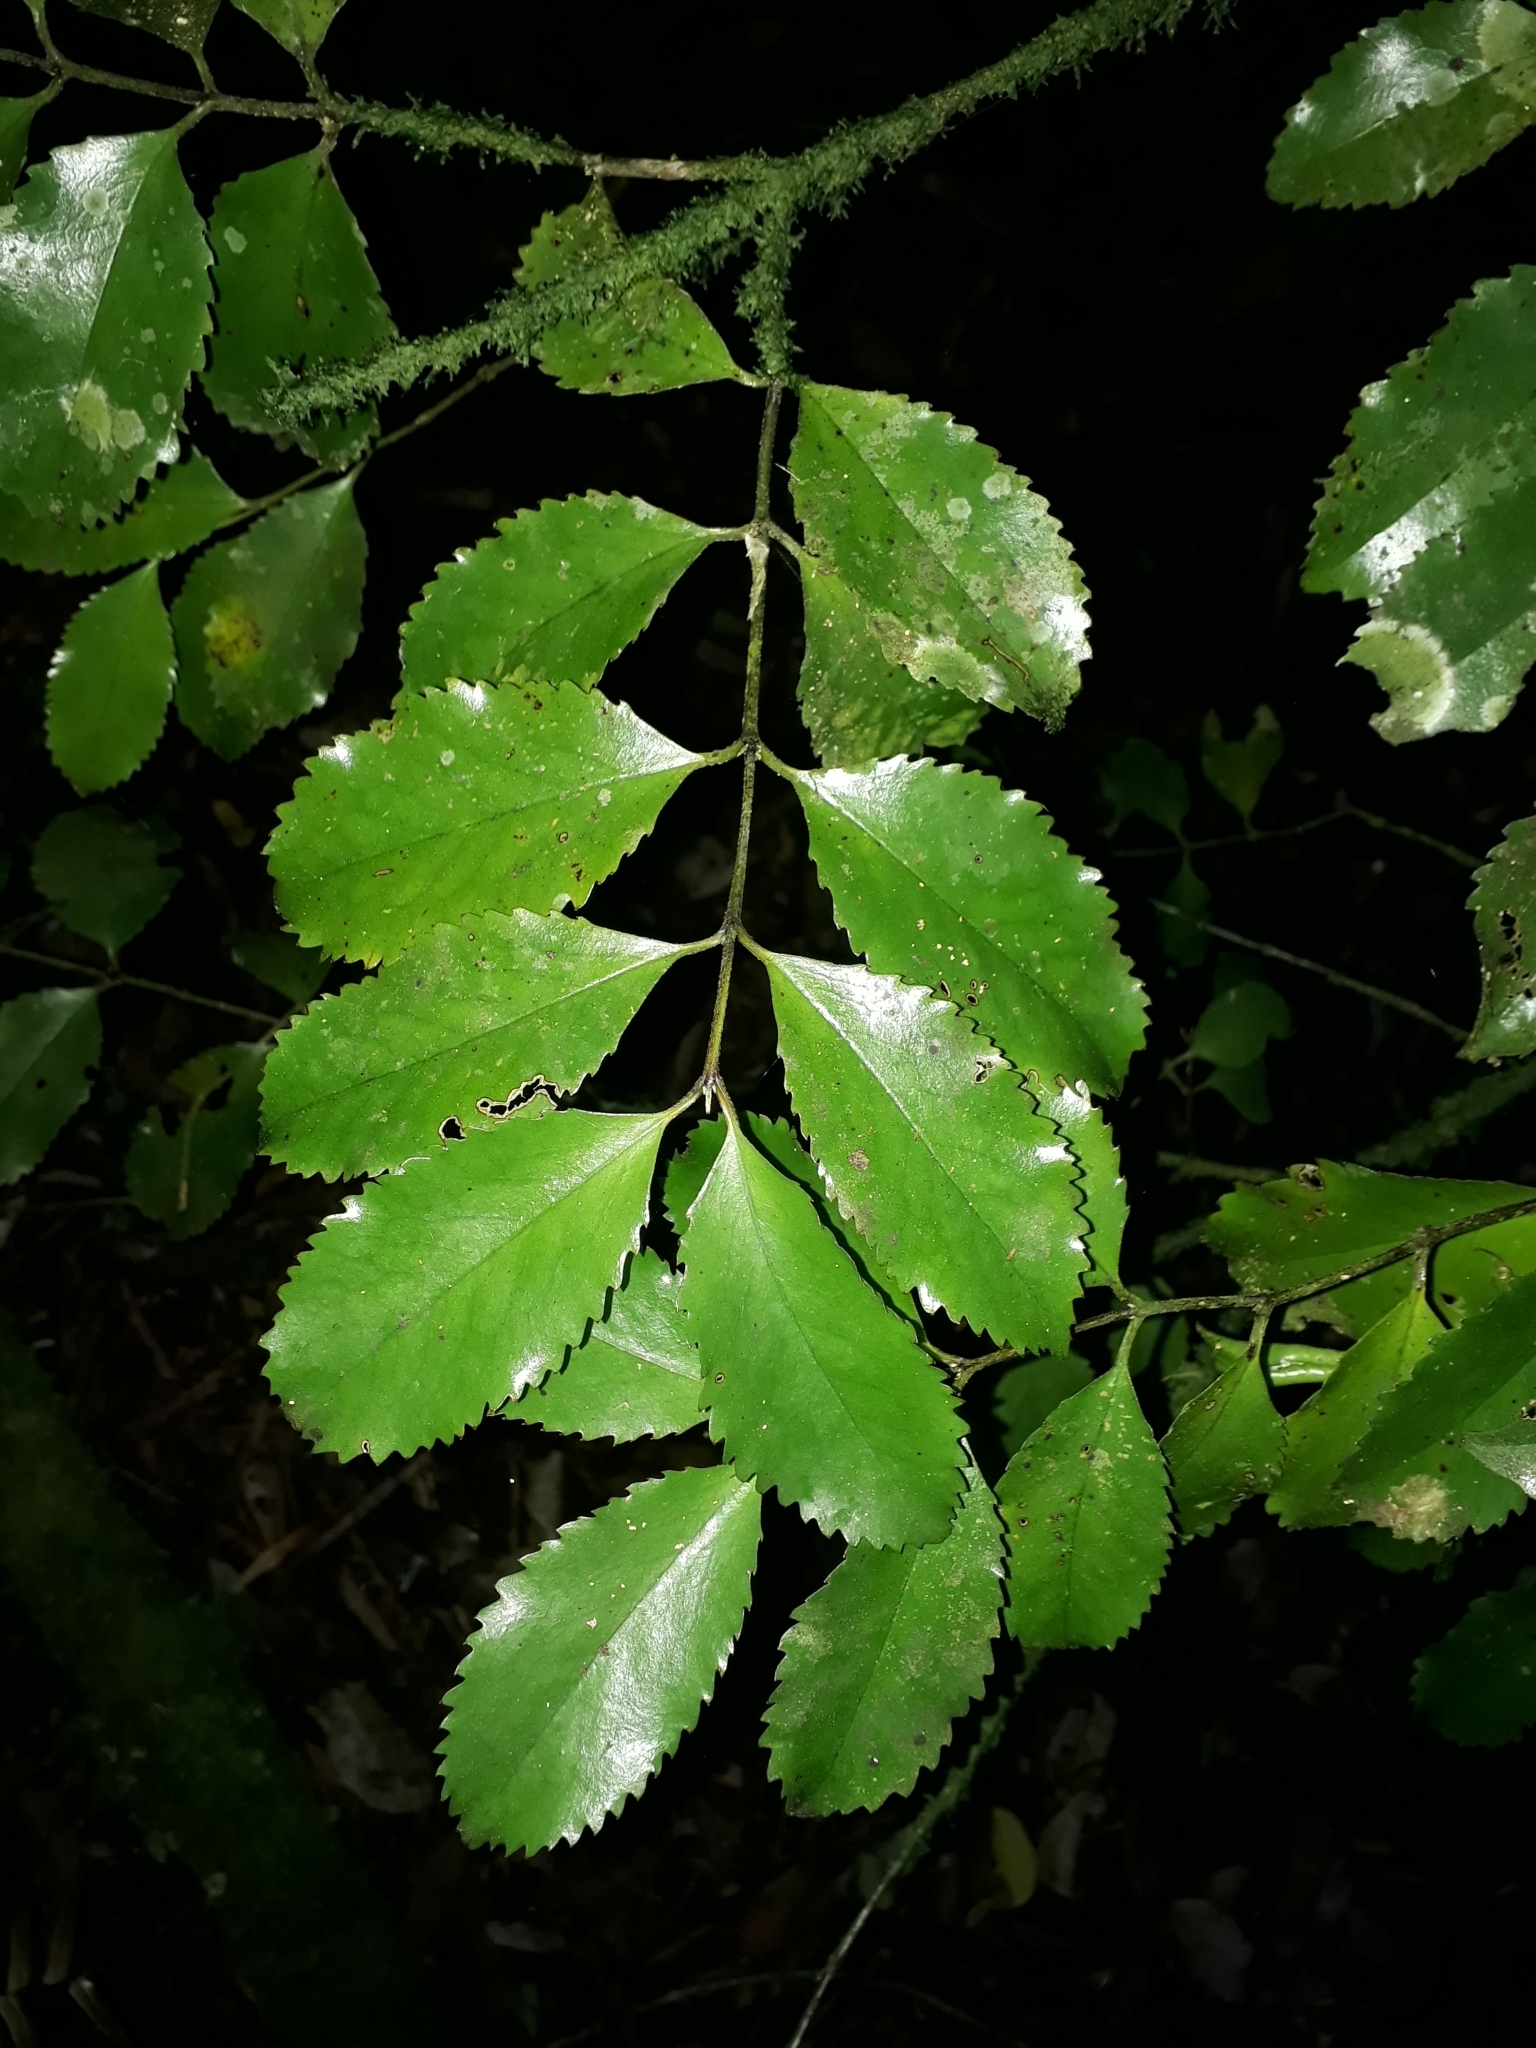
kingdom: Plantae
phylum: Tracheophyta
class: Magnoliopsida
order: Laurales
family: Atherospermataceae
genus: Laurelia
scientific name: Laurelia novae-zelandiae
